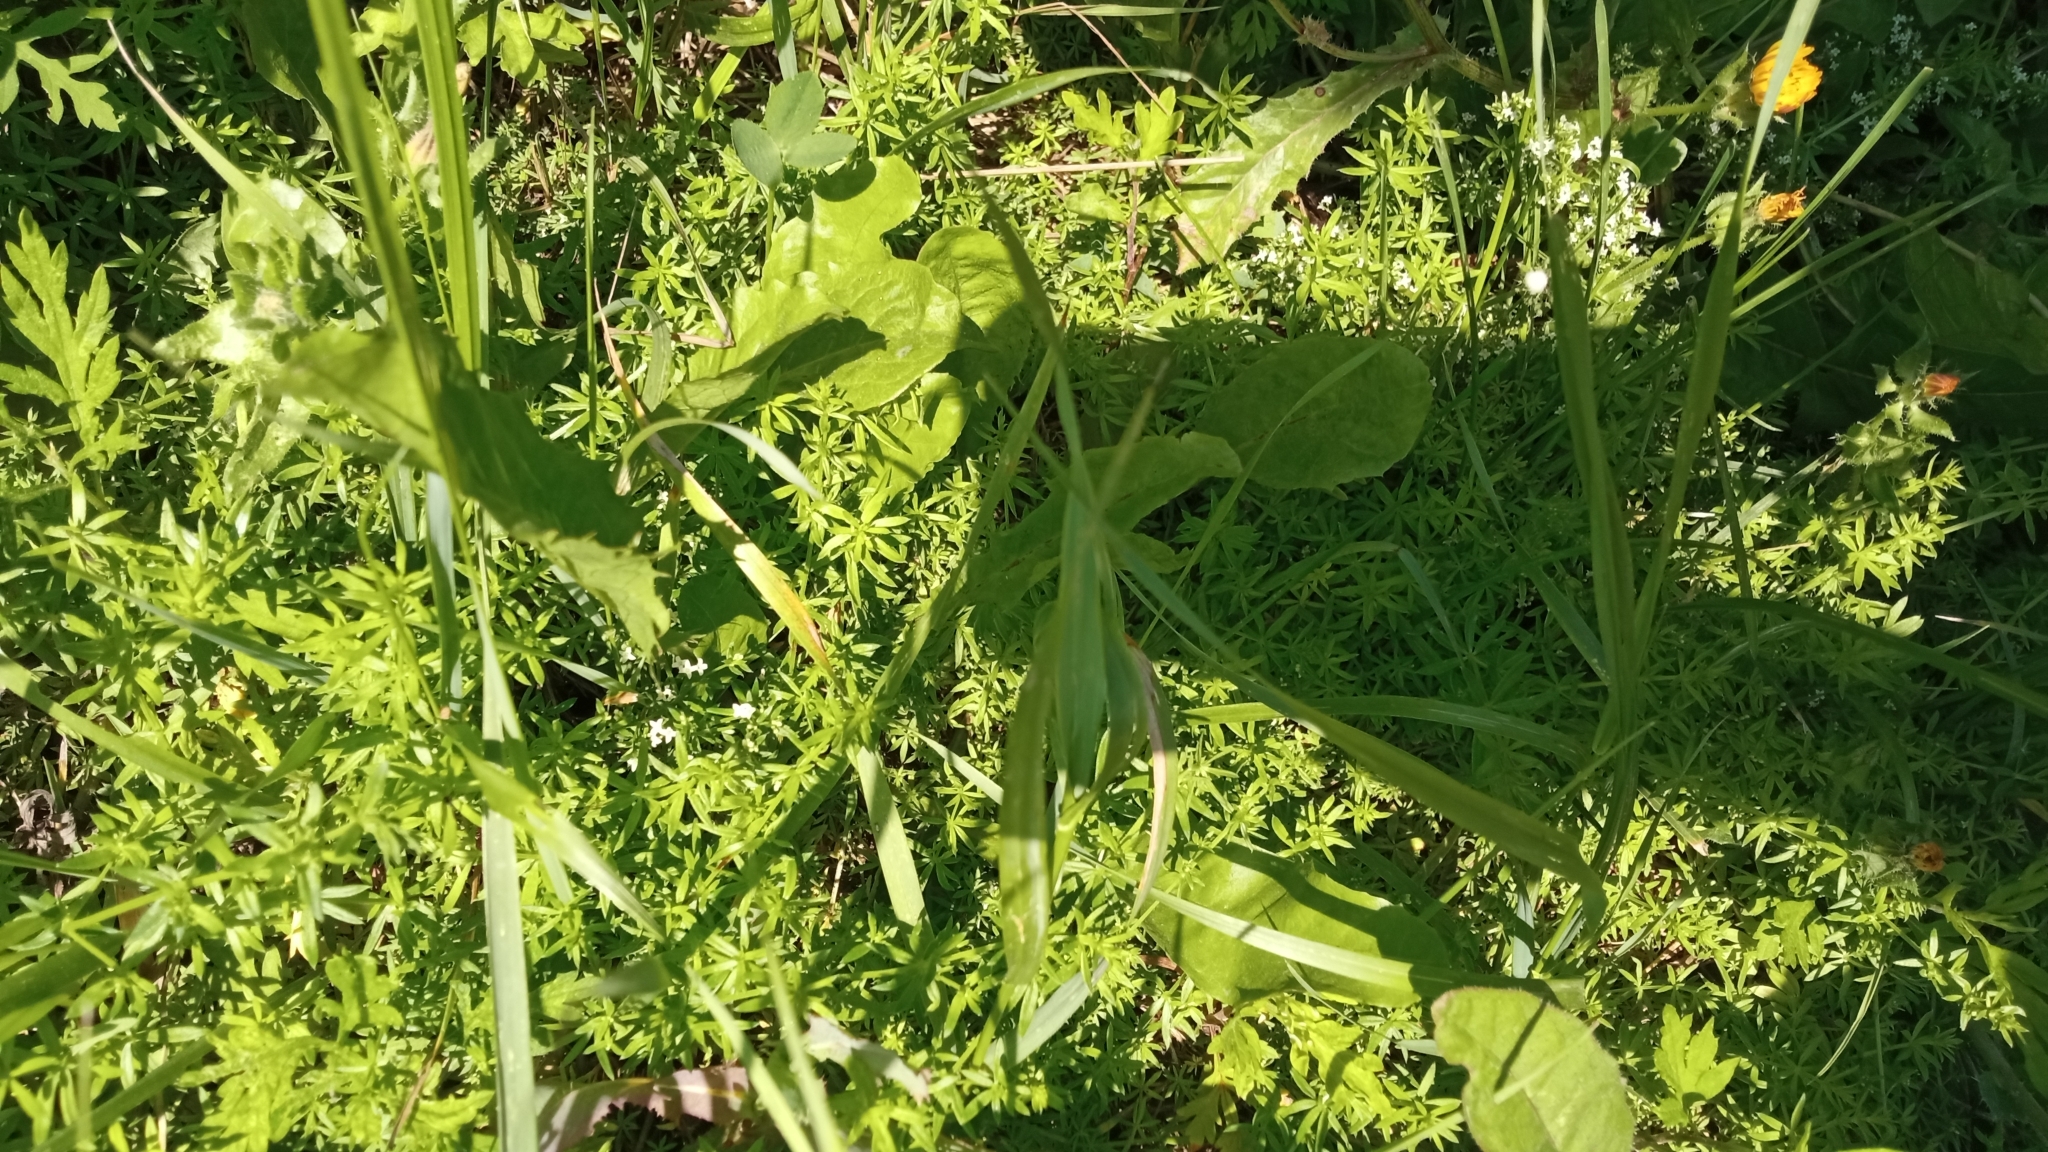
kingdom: Plantae
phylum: Tracheophyta
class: Magnoliopsida
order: Gentianales
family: Rubiaceae
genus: Galium
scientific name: Galium humifusum
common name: Spreading bedstraw
